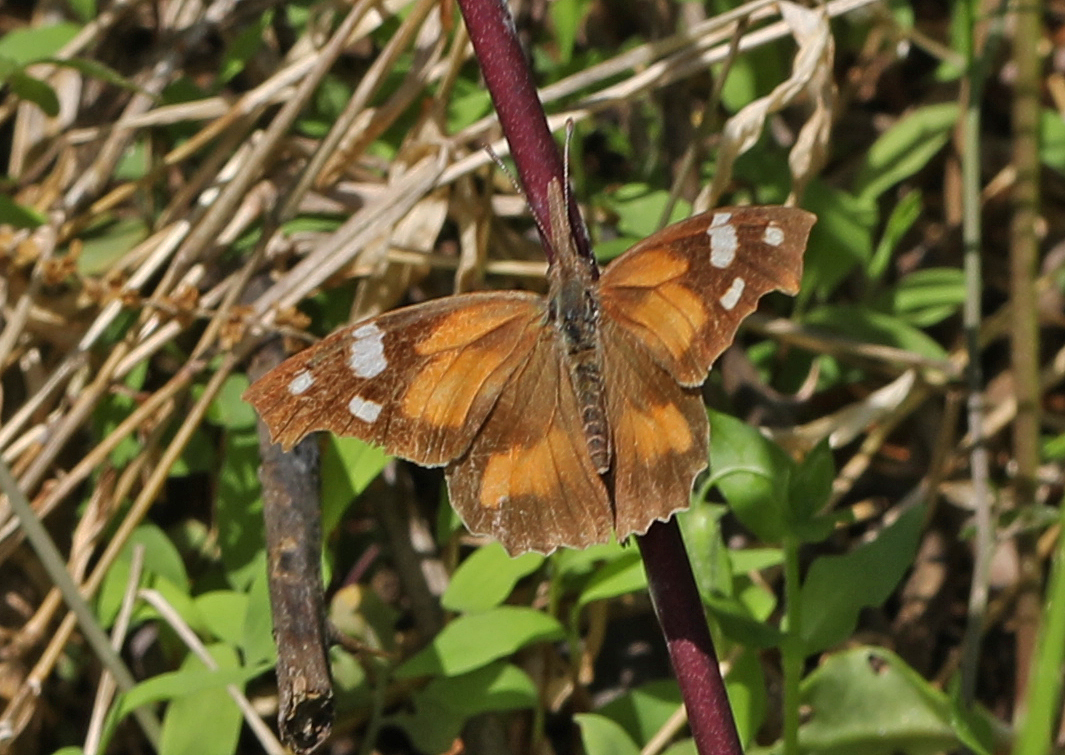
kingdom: Animalia
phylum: Arthropoda
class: Insecta
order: Lepidoptera
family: Nymphalidae
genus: Libytheana
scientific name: Libytheana carinenta
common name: American snout
